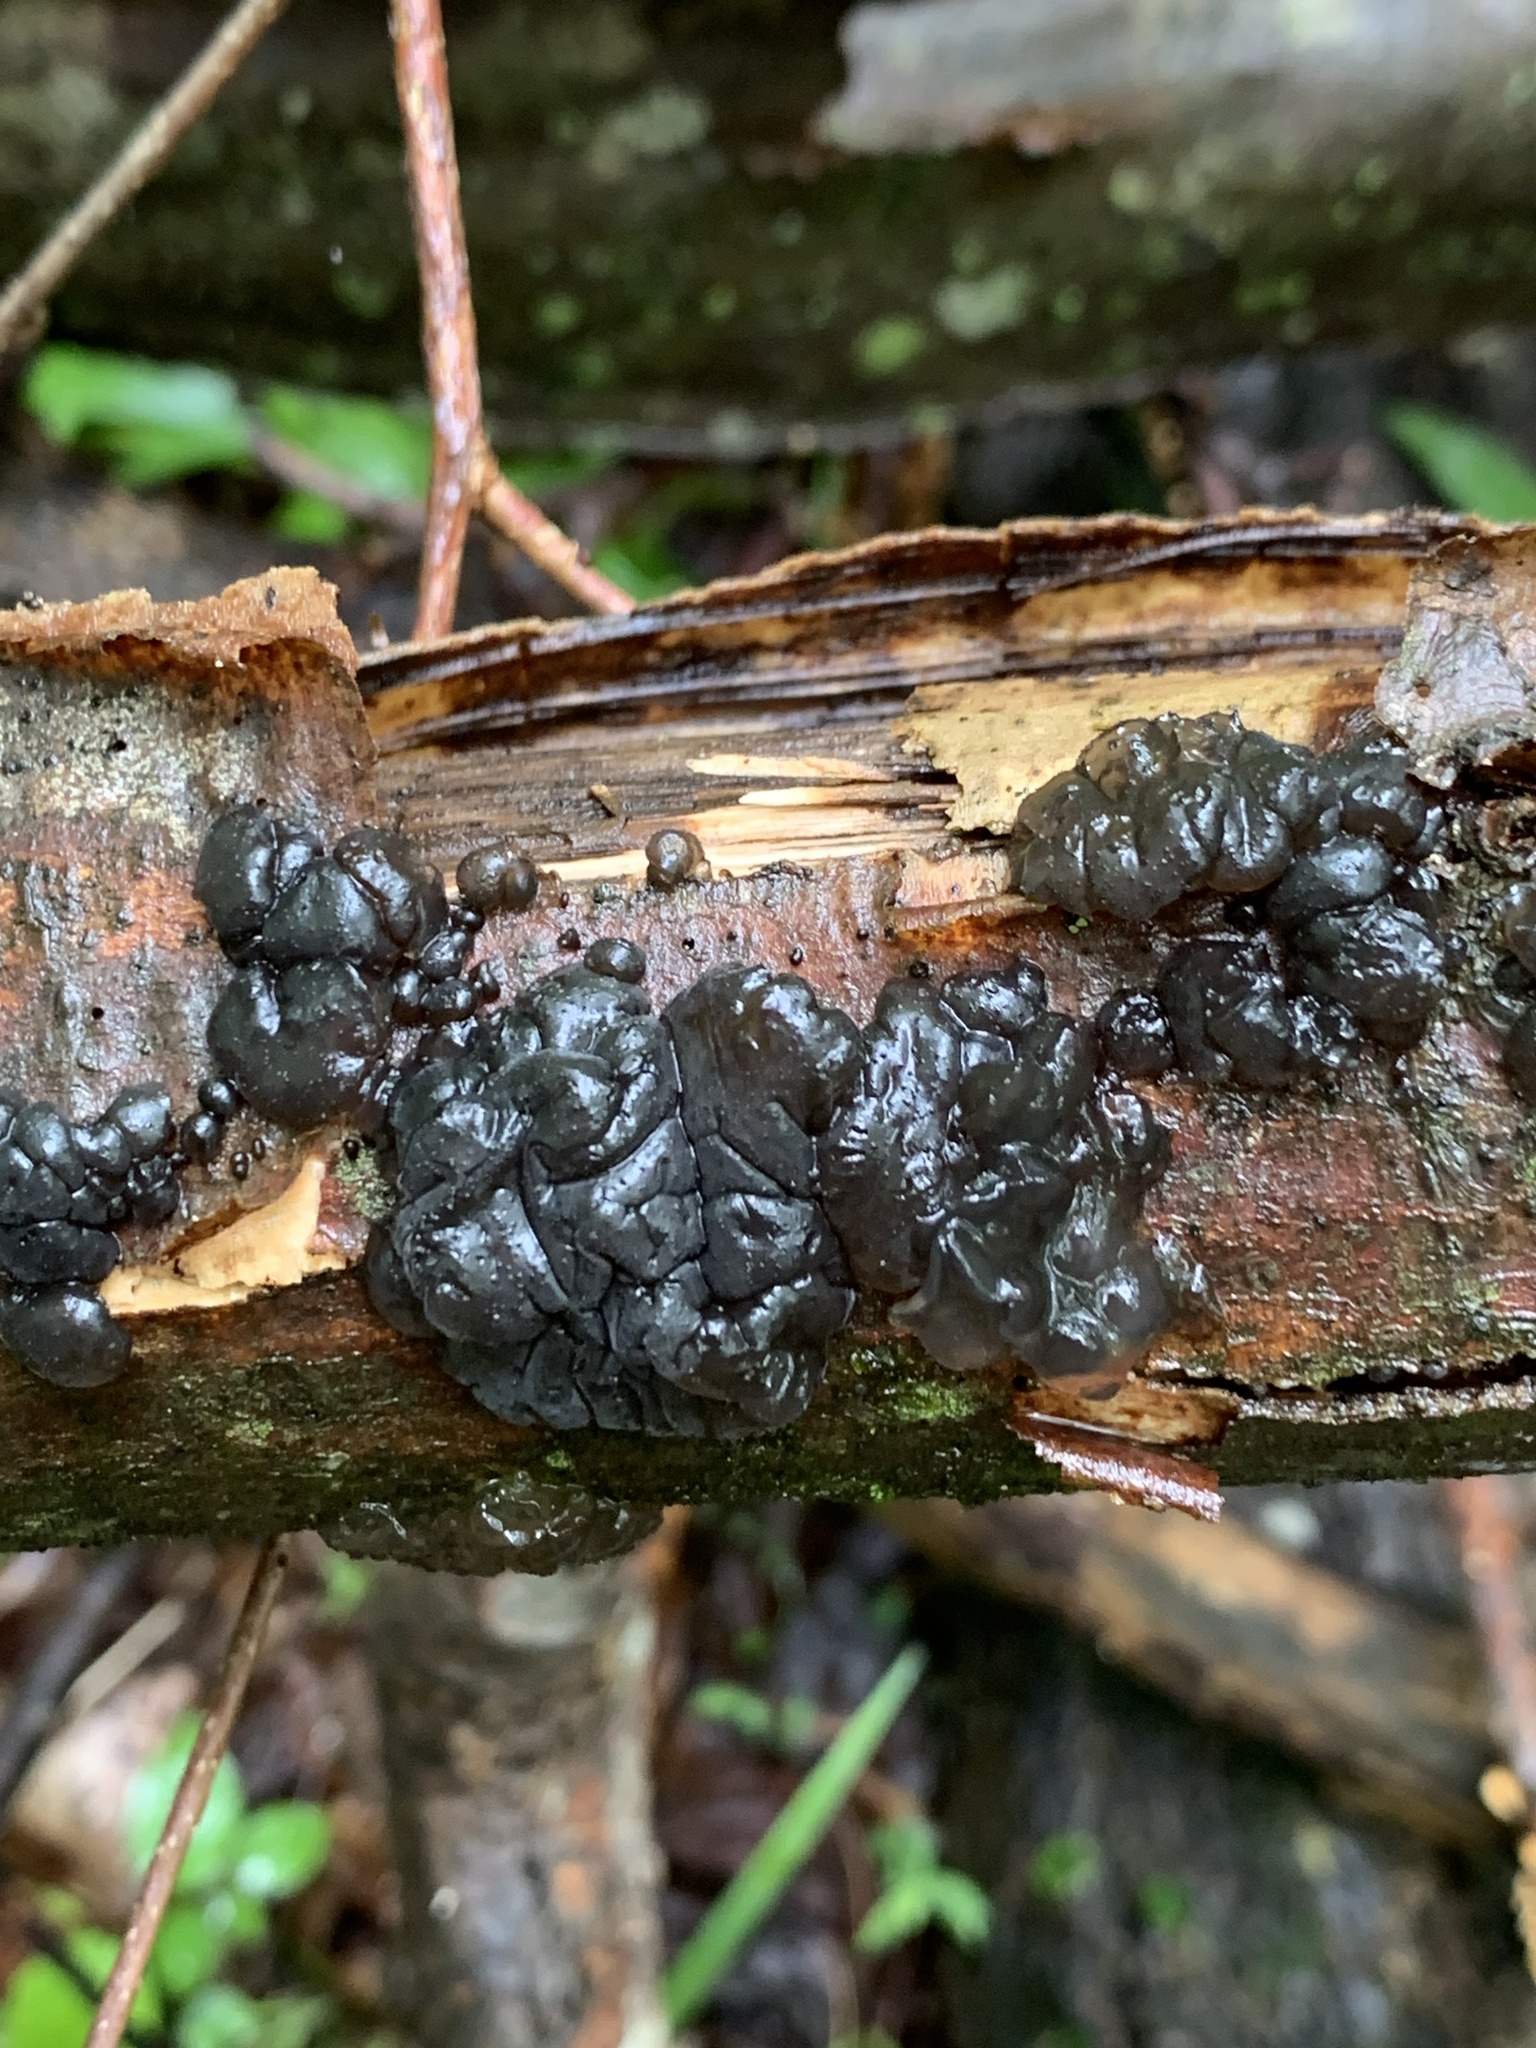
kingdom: Fungi
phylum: Basidiomycota
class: Agaricomycetes
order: Auriculariales
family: Auriculariaceae
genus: Exidia
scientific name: Exidia glandulosa
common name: Witches' butter
